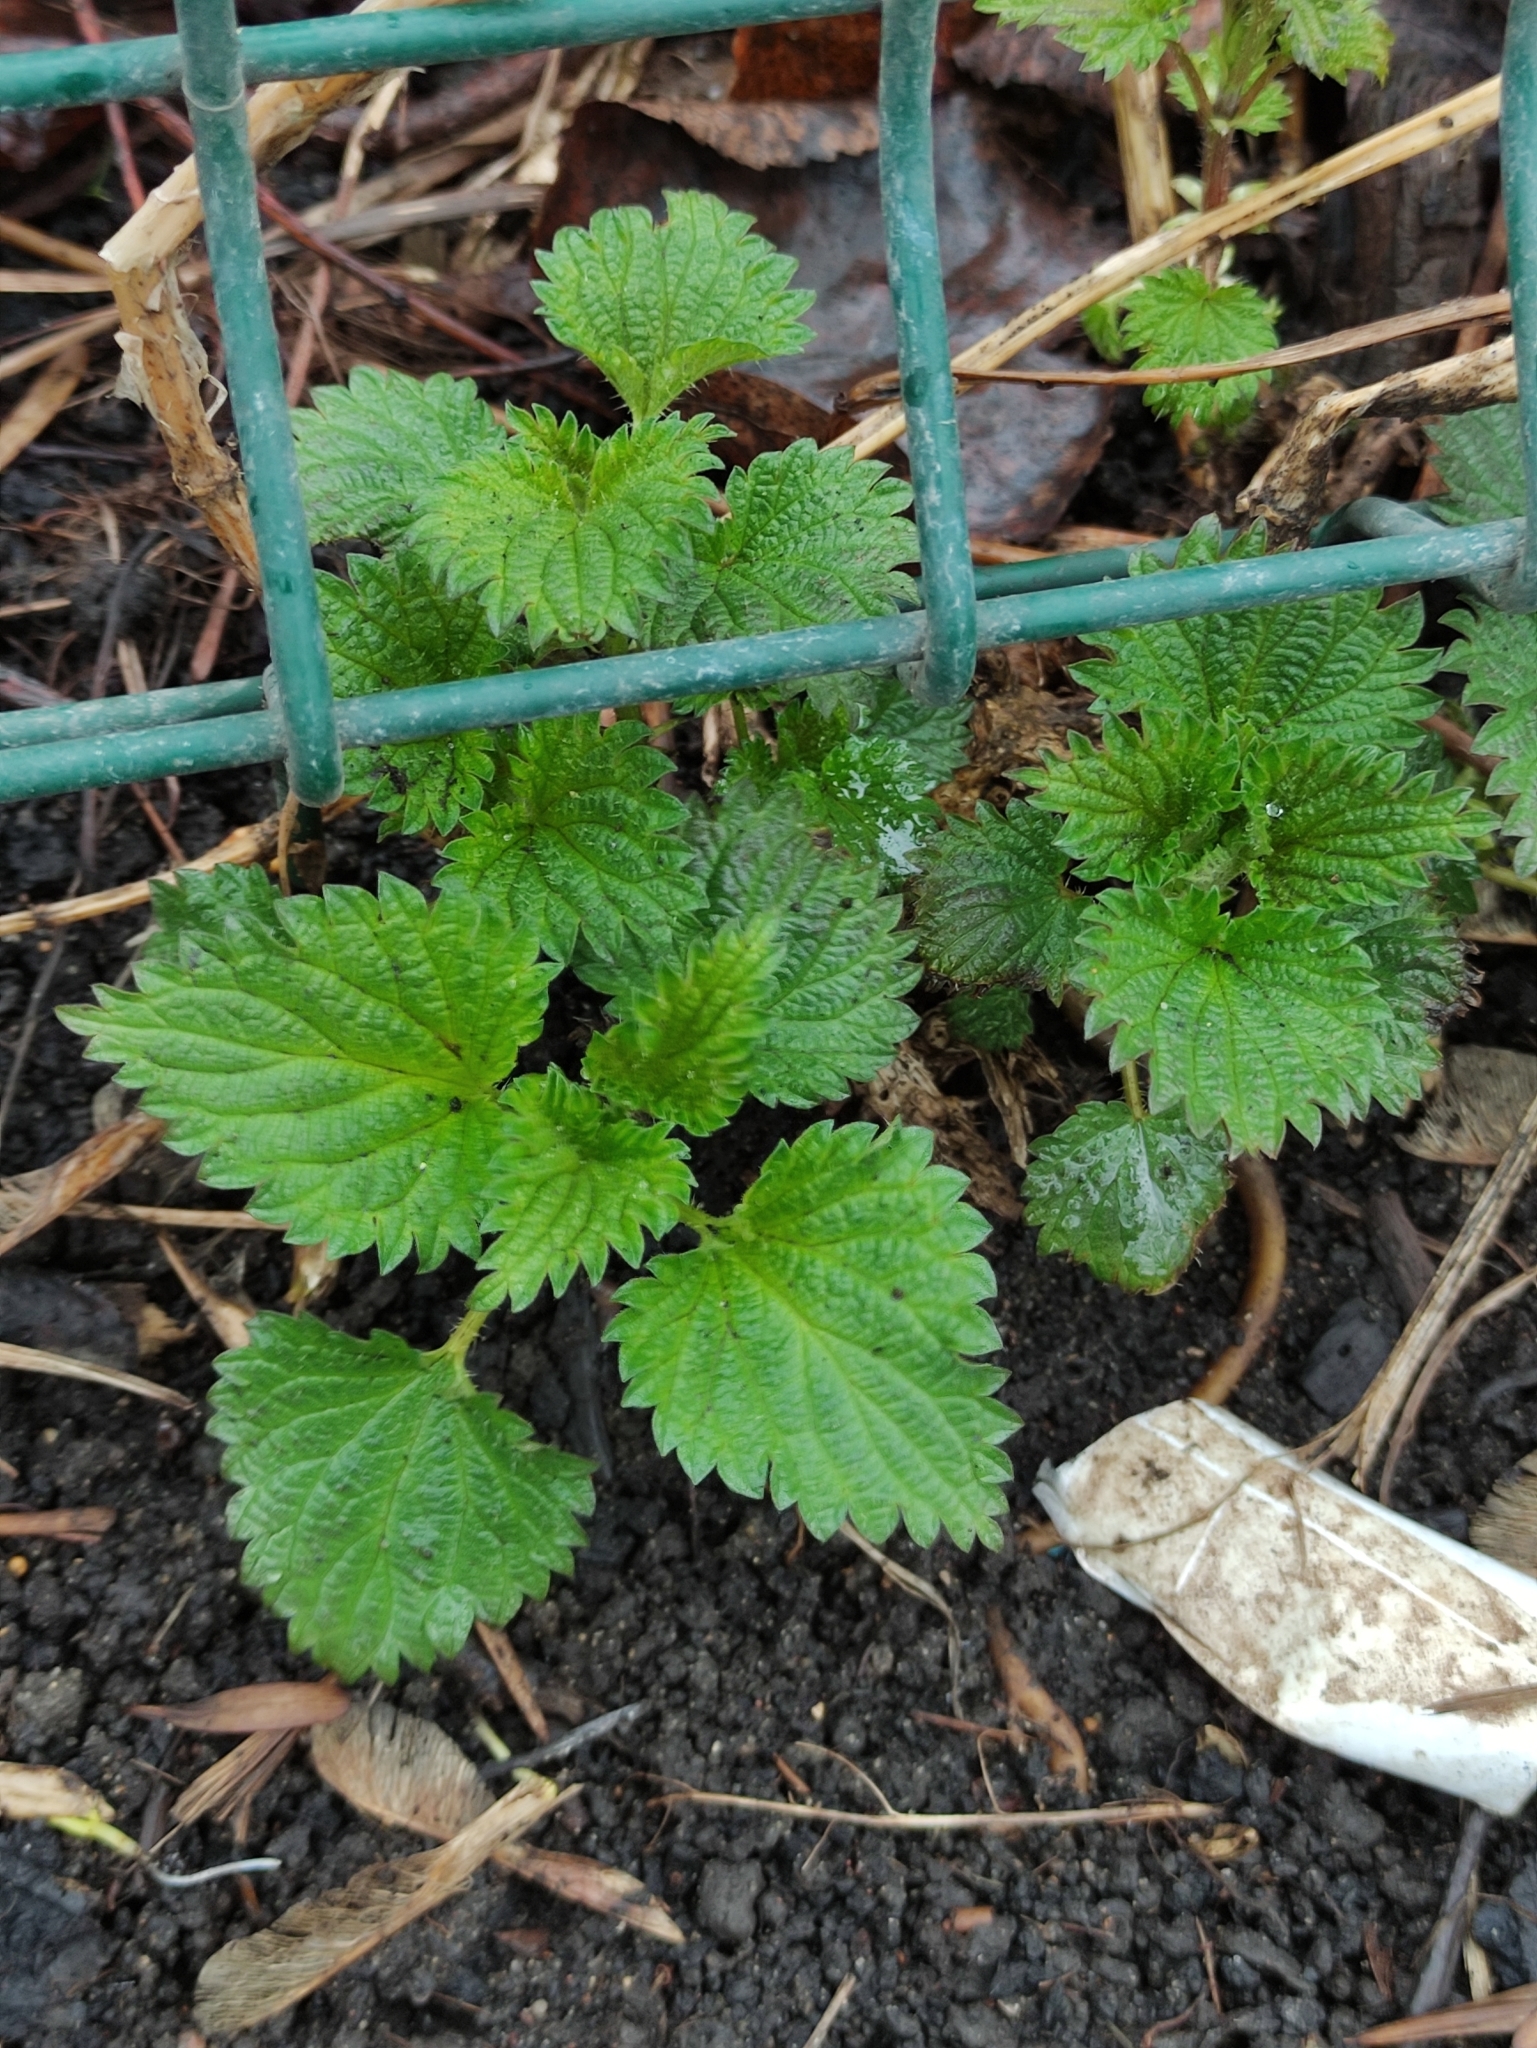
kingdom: Plantae
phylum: Tracheophyta
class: Magnoliopsida
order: Rosales
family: Urticaceae
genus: Urtica
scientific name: Urtica dioica
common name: Common nettle
